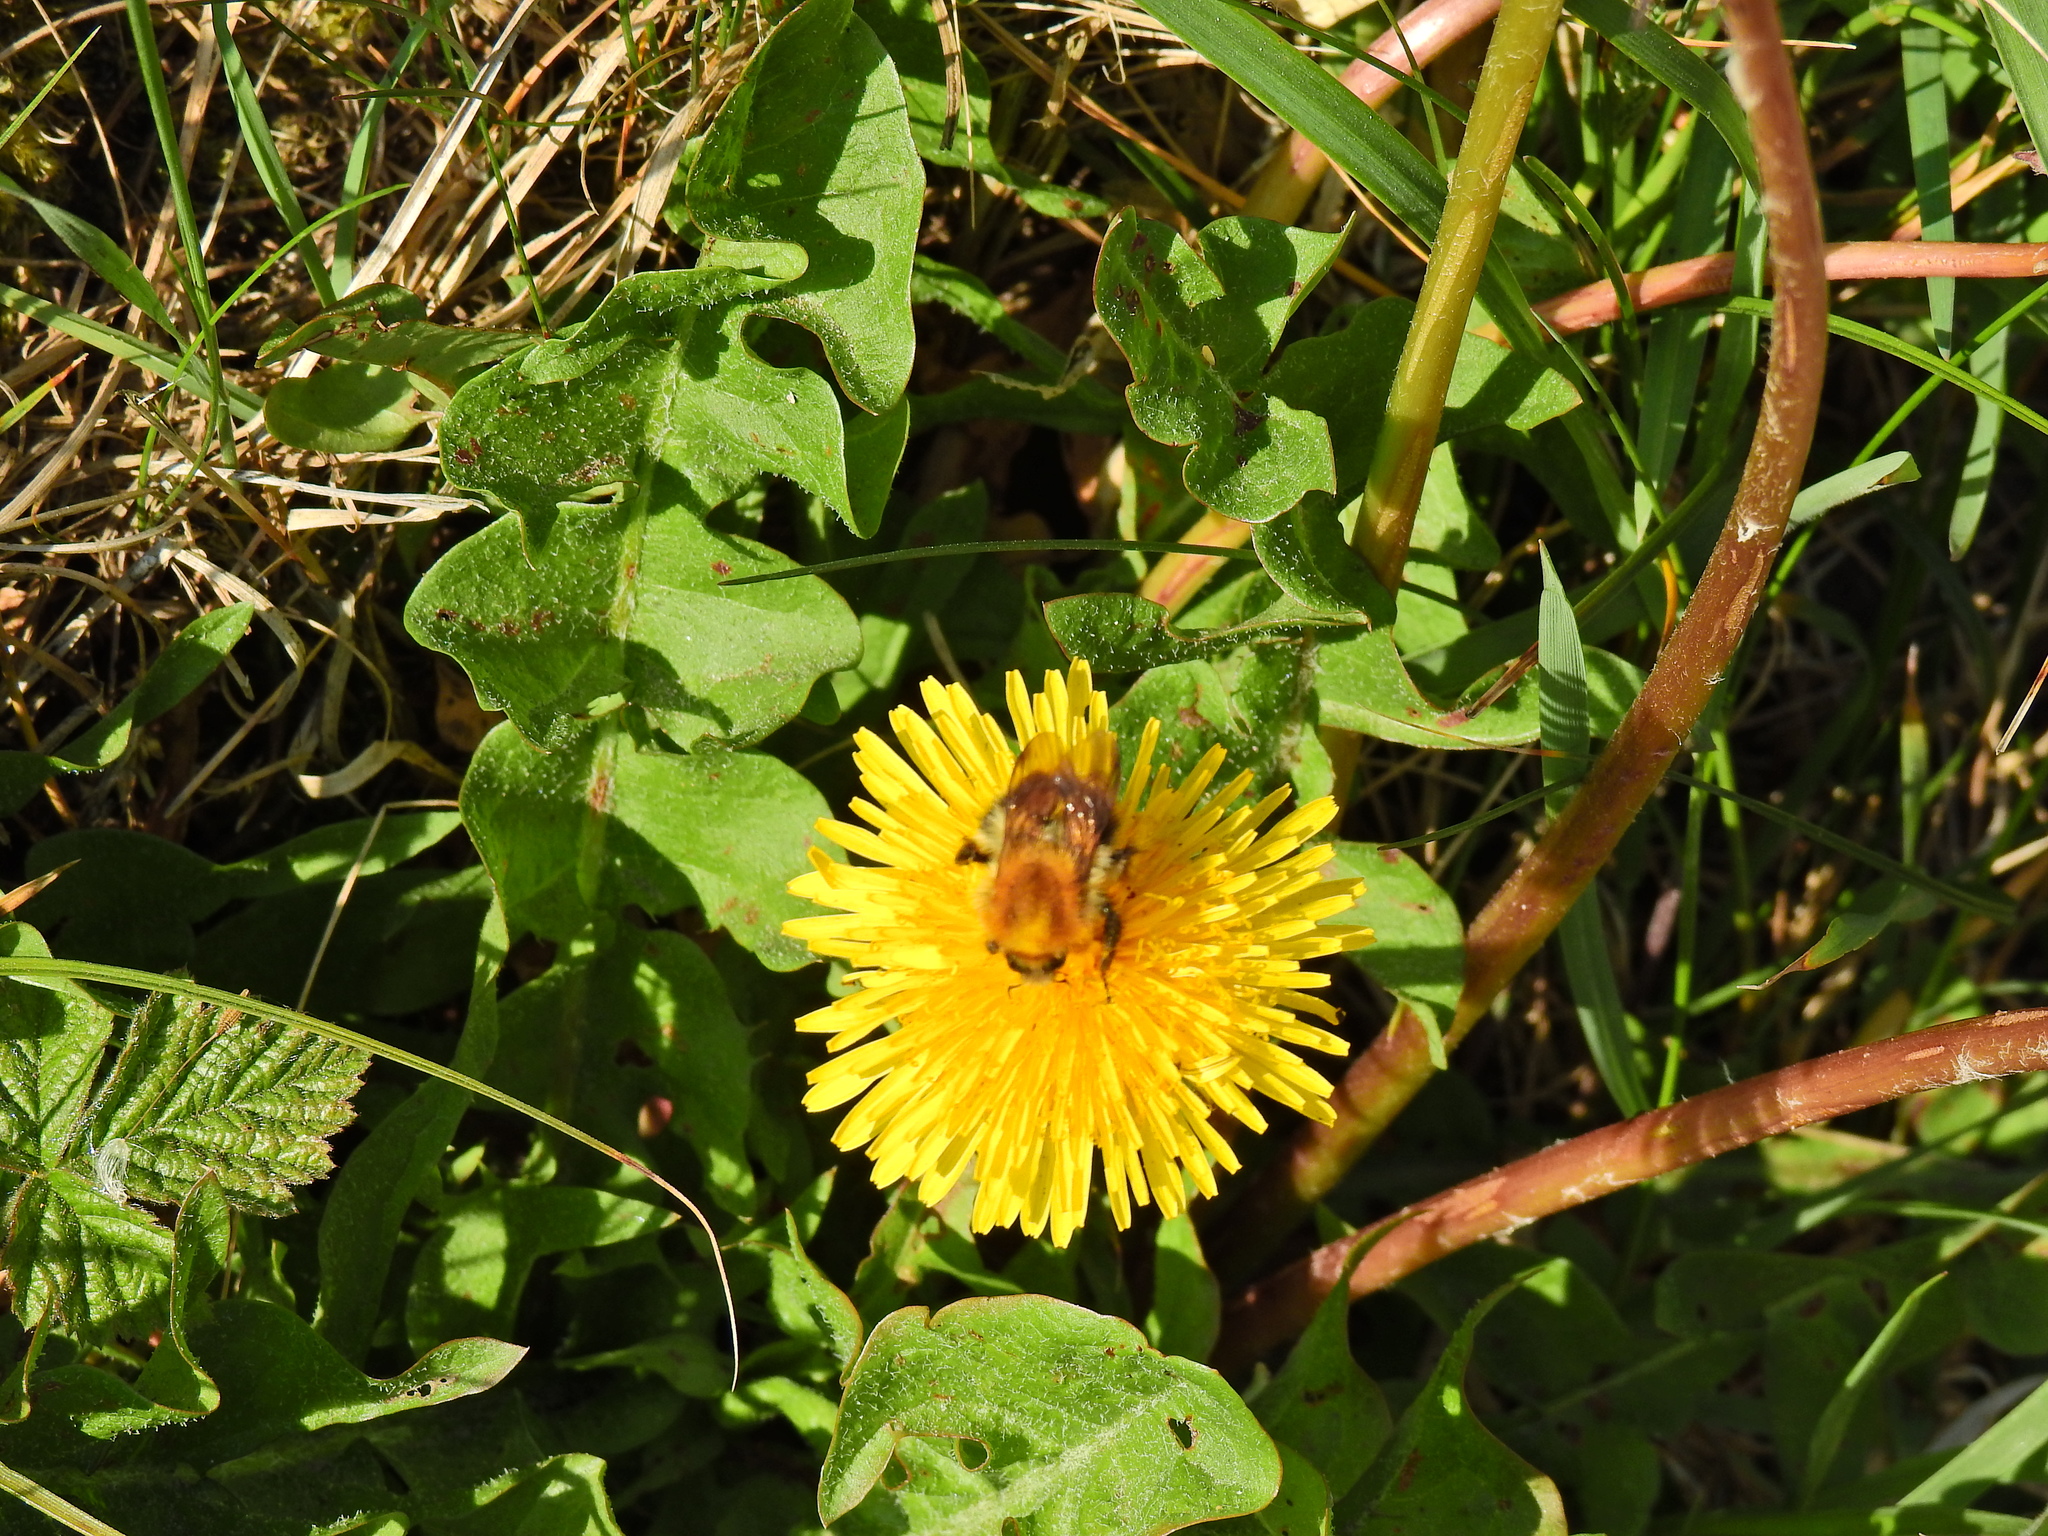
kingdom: Animalia
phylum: Arthropoda
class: Insecta
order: Hymenoptera
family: Apidae
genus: Bombus
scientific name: Bombus pascuorum
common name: Common carder bee
